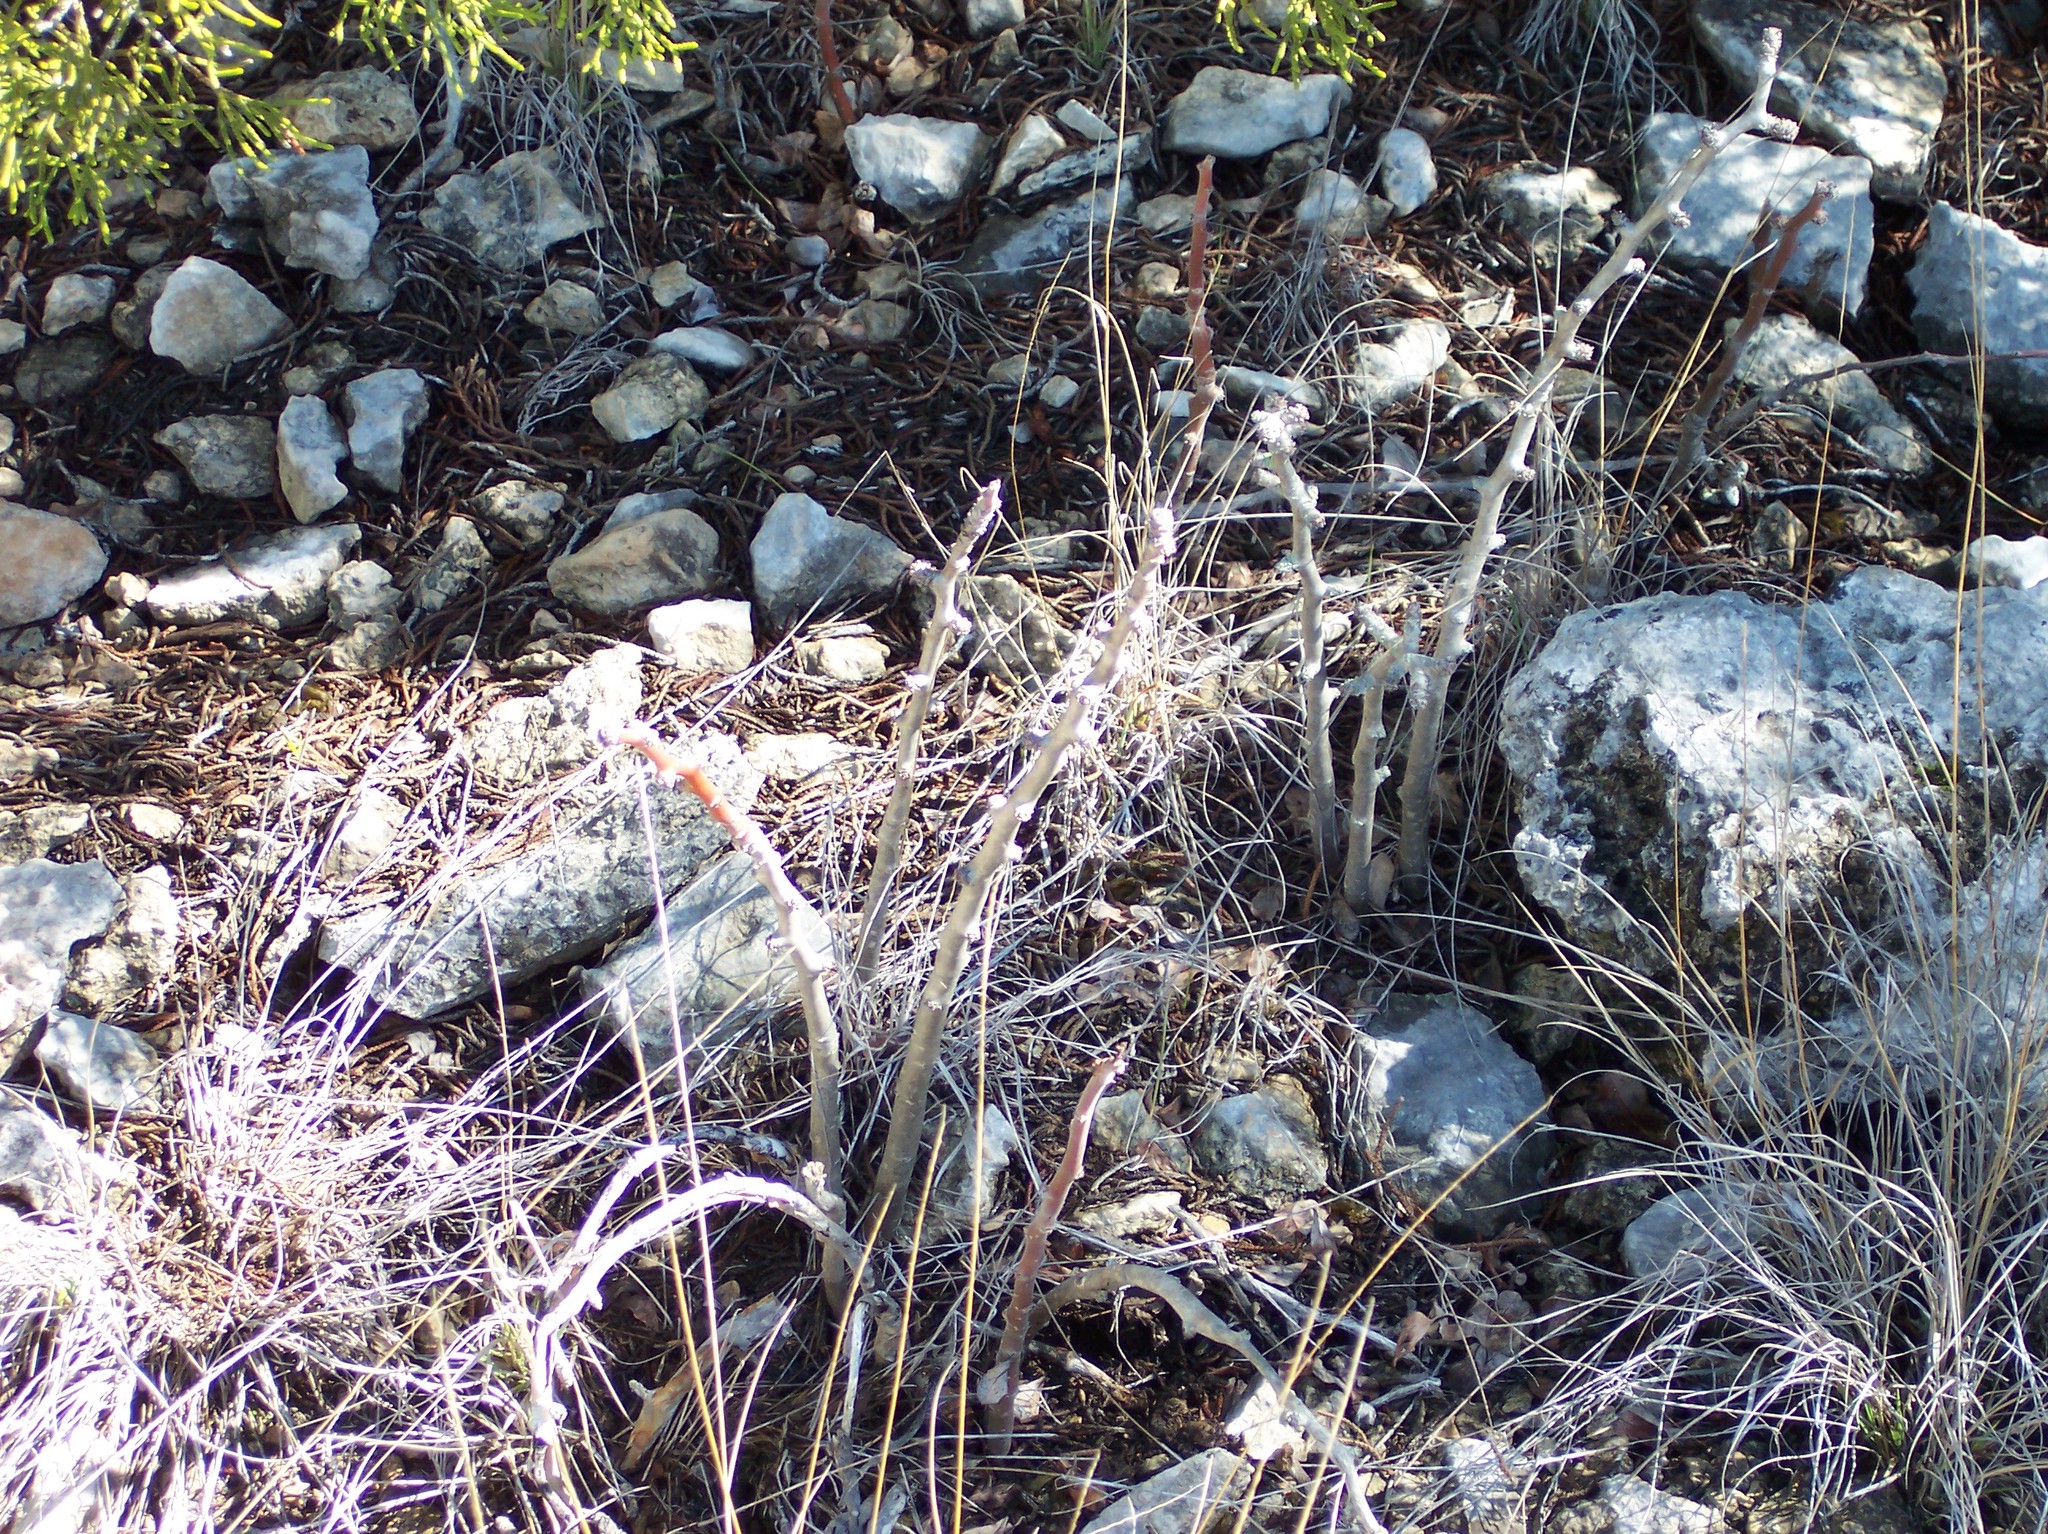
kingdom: Plantae
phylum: Tracheophyta
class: Magnoliopsida
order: Malpighiales
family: Euphorbiaceae
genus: Jatropha
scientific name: Jatropha dioica
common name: Leatherstem
